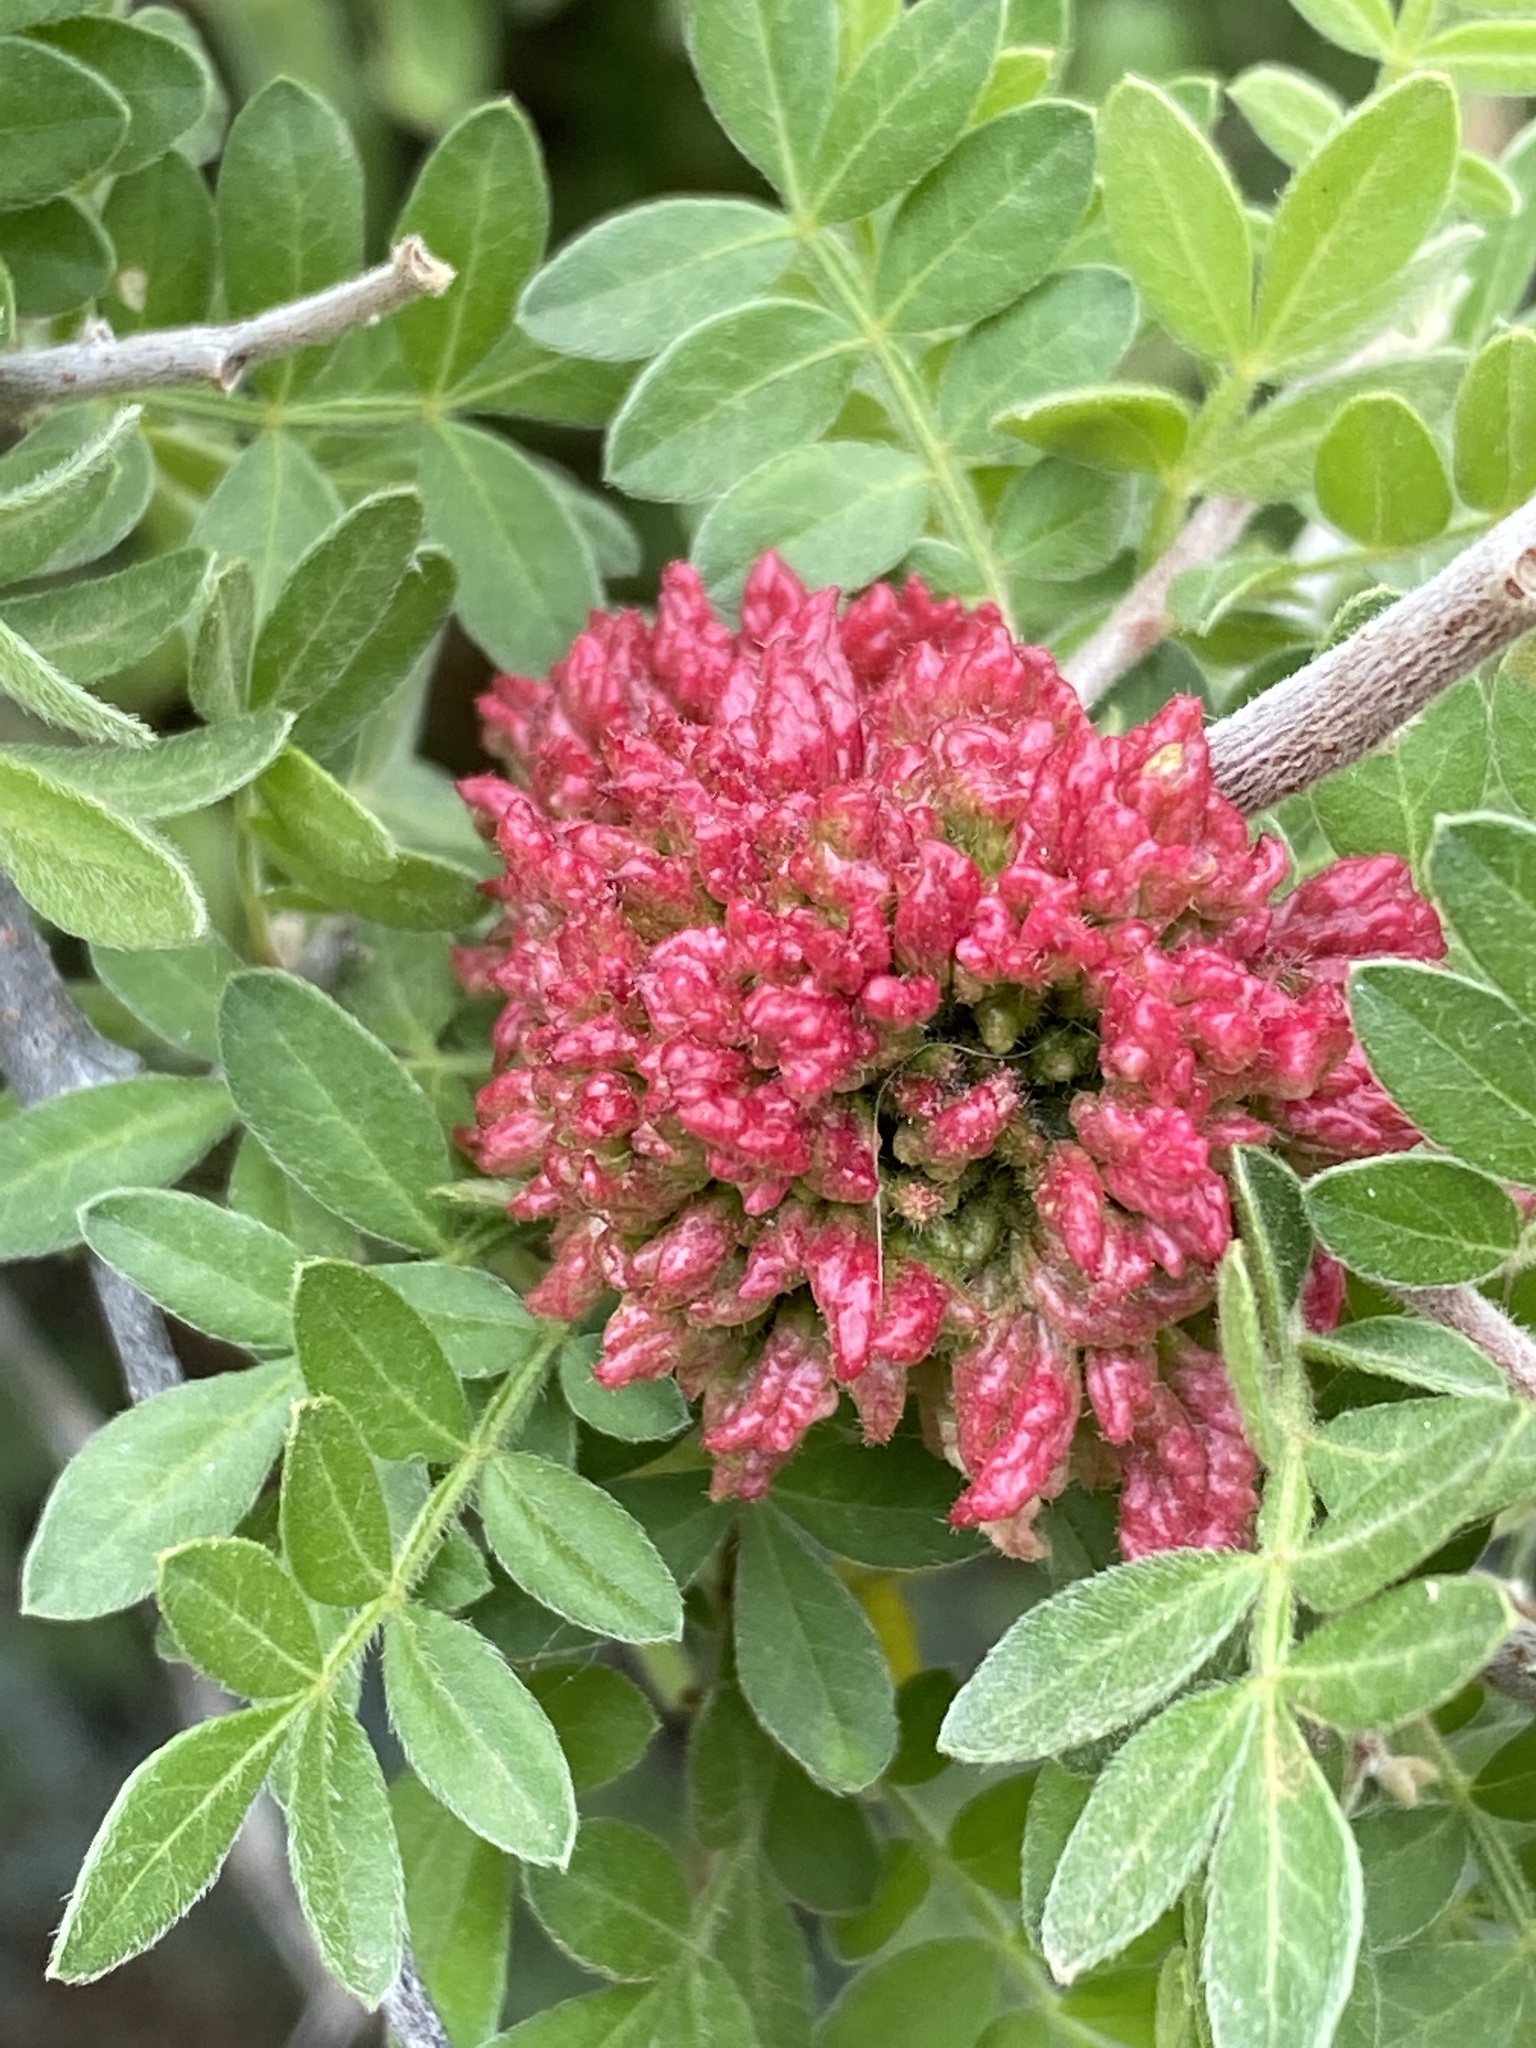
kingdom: Animalia
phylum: Arthropoda
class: Arachnida
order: Trombidiformes
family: Eriophyidae
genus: Aculops
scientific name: Aculops
